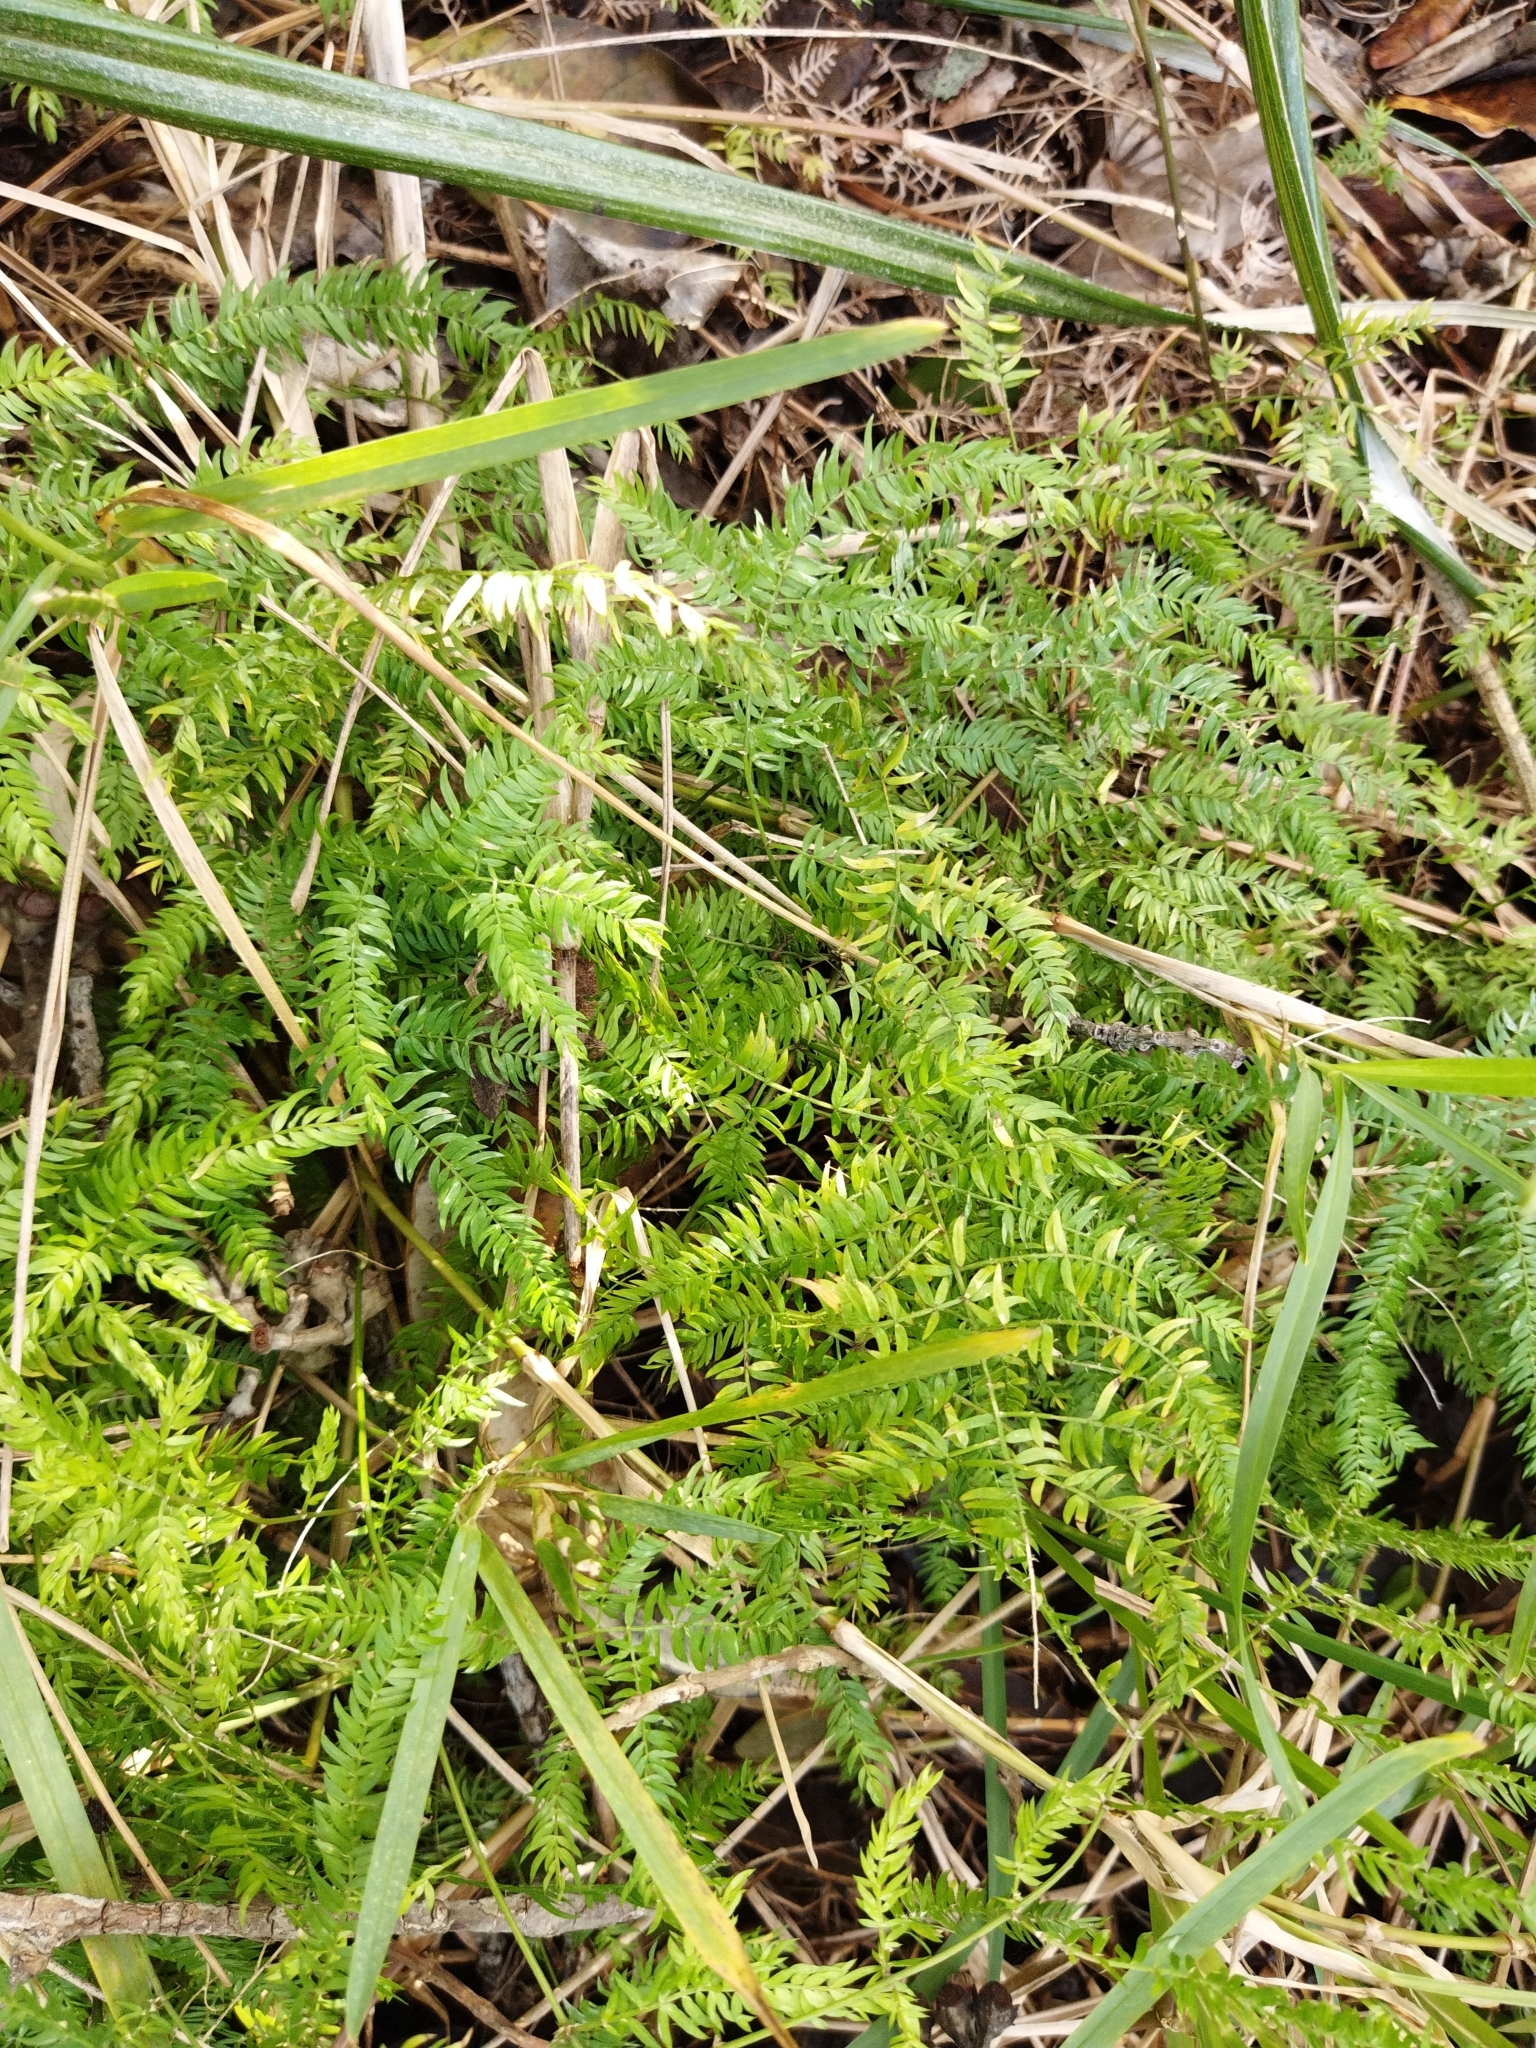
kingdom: Plantae
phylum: Tracheophyta
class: Liliopsida
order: Asparagales
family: Asparagaceae
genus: Asparagus
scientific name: Asparagus scandens
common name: Asparagus-fern
